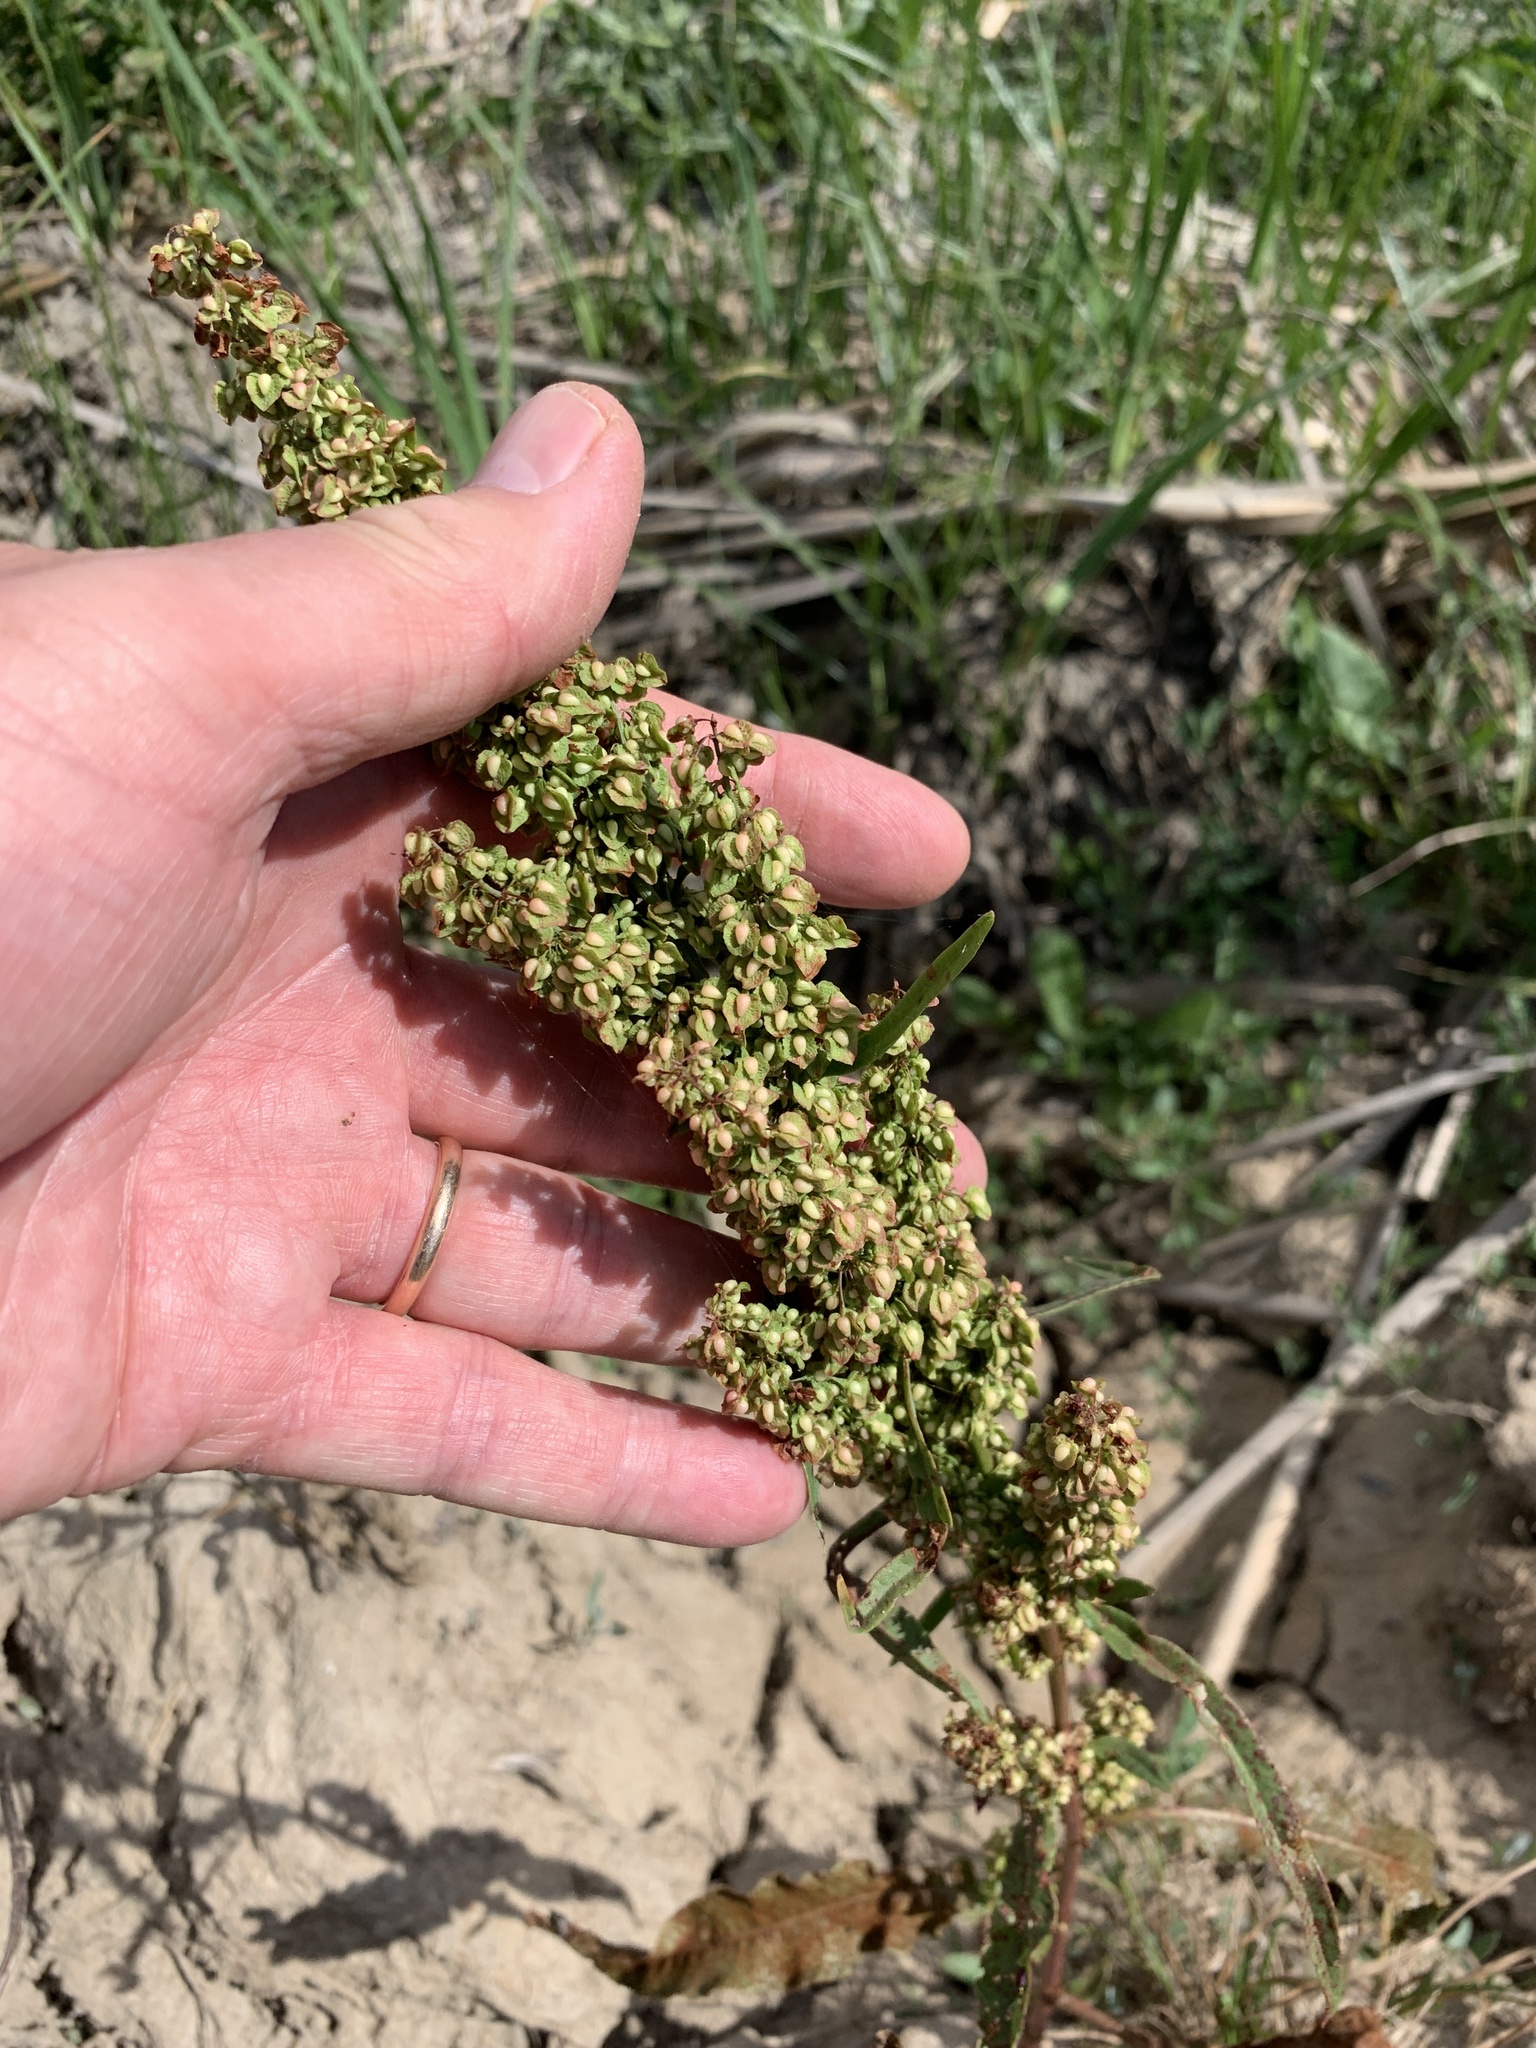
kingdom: Plantae
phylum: Tracheophyta
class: Magnoliopsida
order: Caryophyllales
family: Polygonaceae
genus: Rumex
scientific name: Rumex crispus
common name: Curled dock
